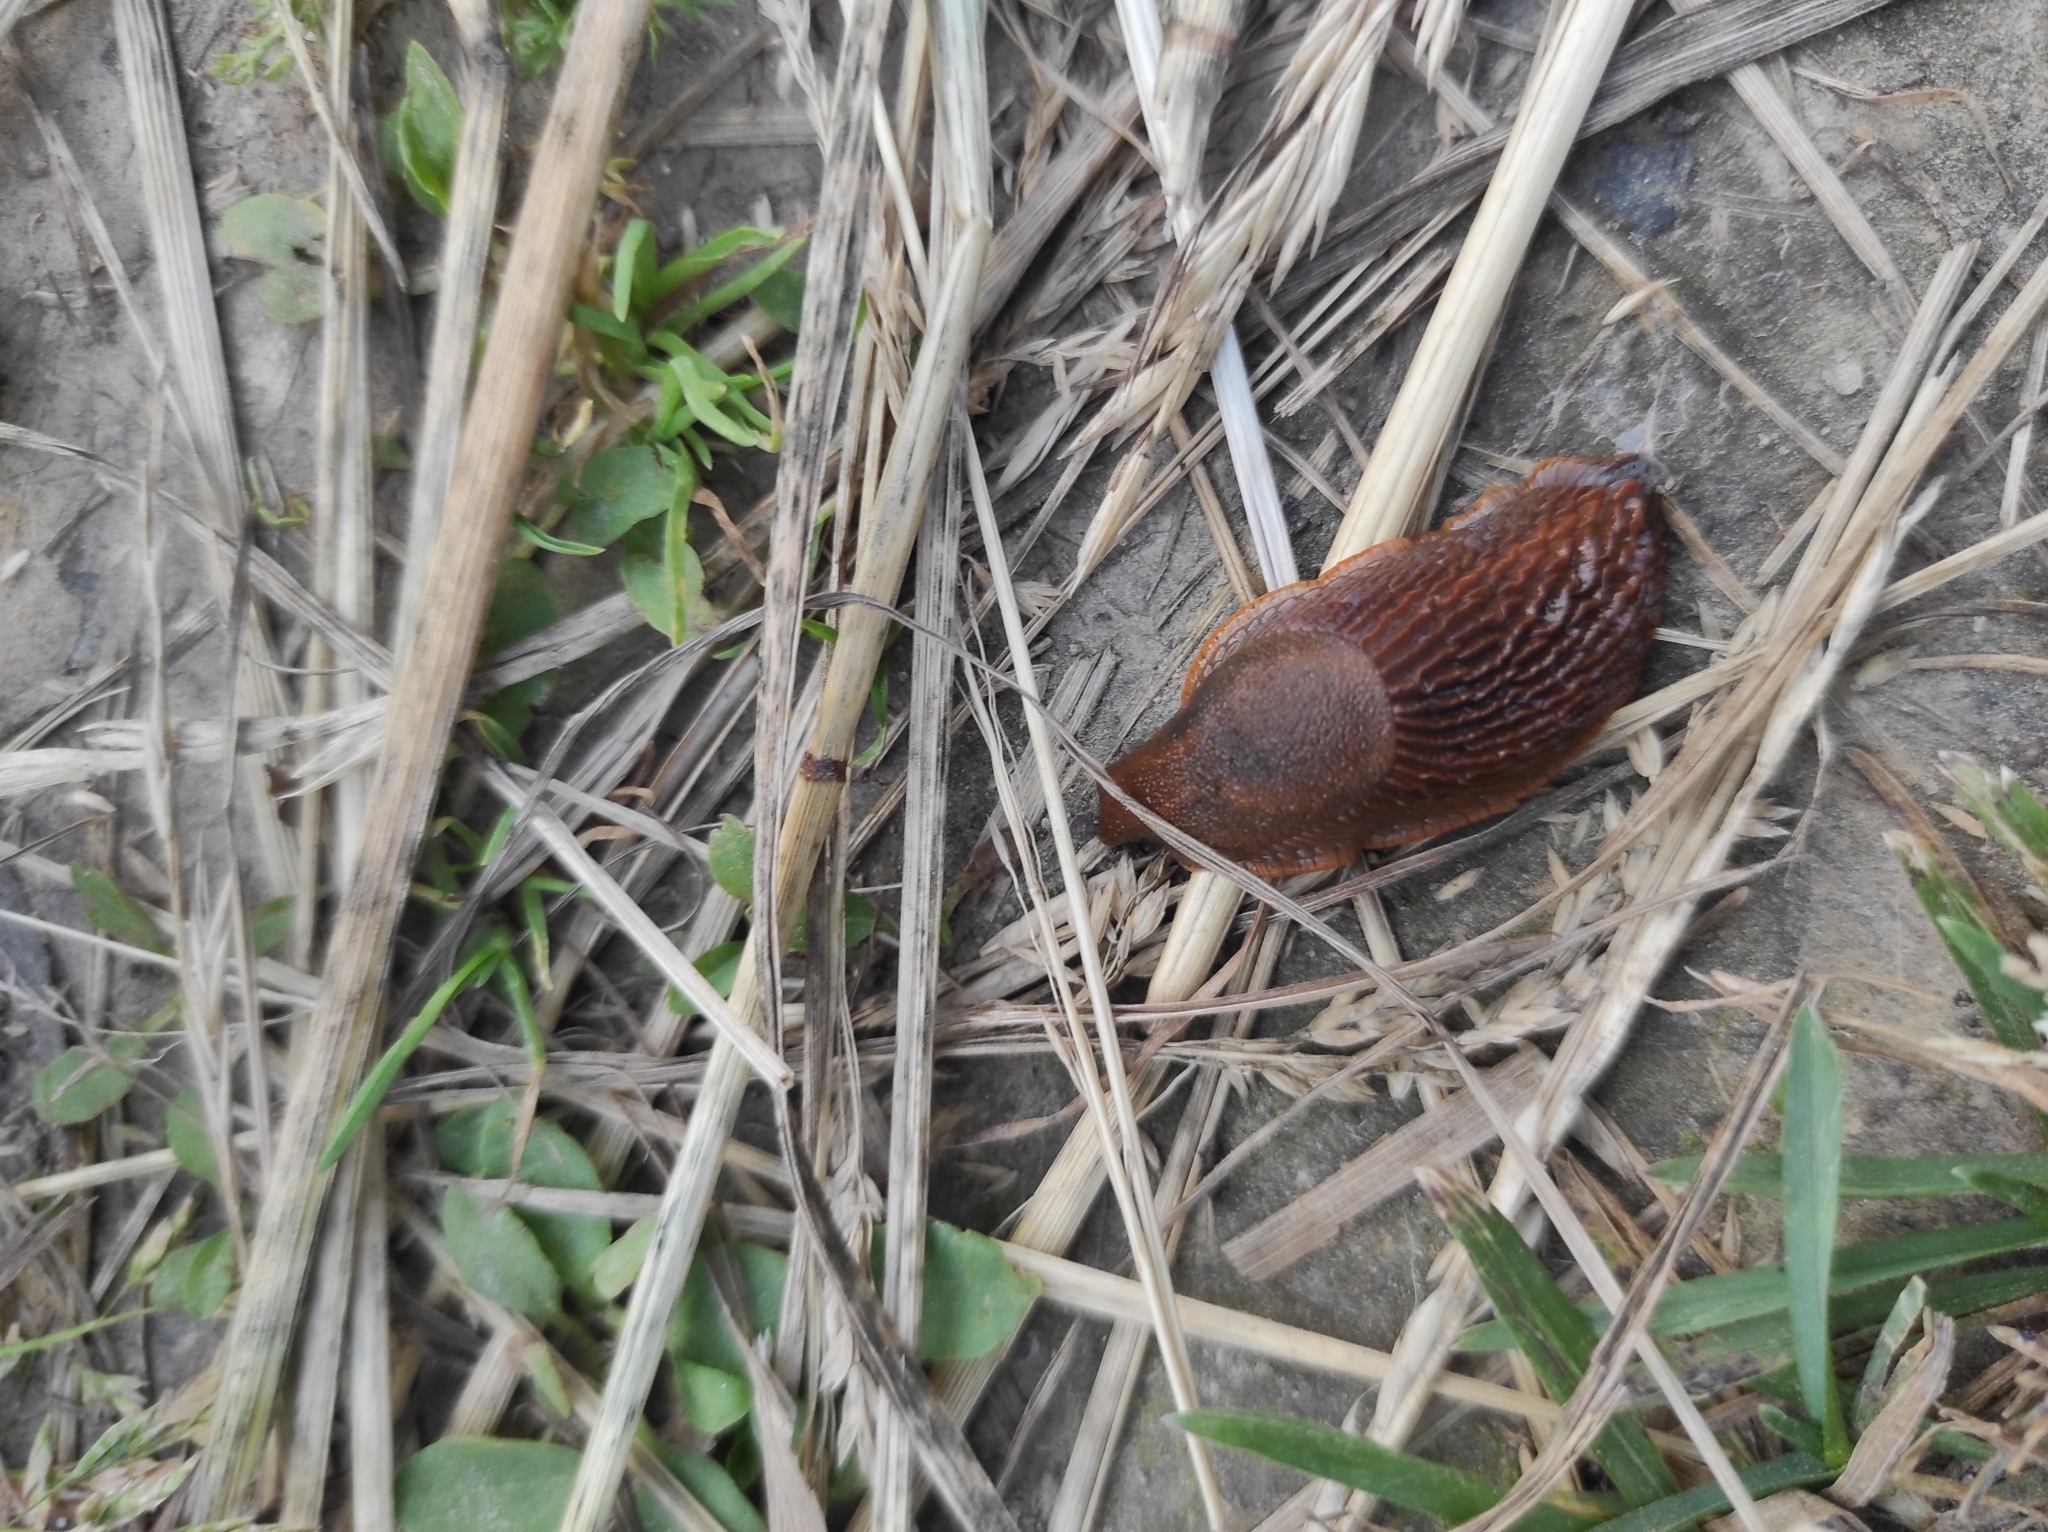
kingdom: Animalia
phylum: Mollusca
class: Gastropoda
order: Stylommatophora
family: Arionidae
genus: Arion
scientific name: Arion vulgaris
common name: Lusitanian slug
